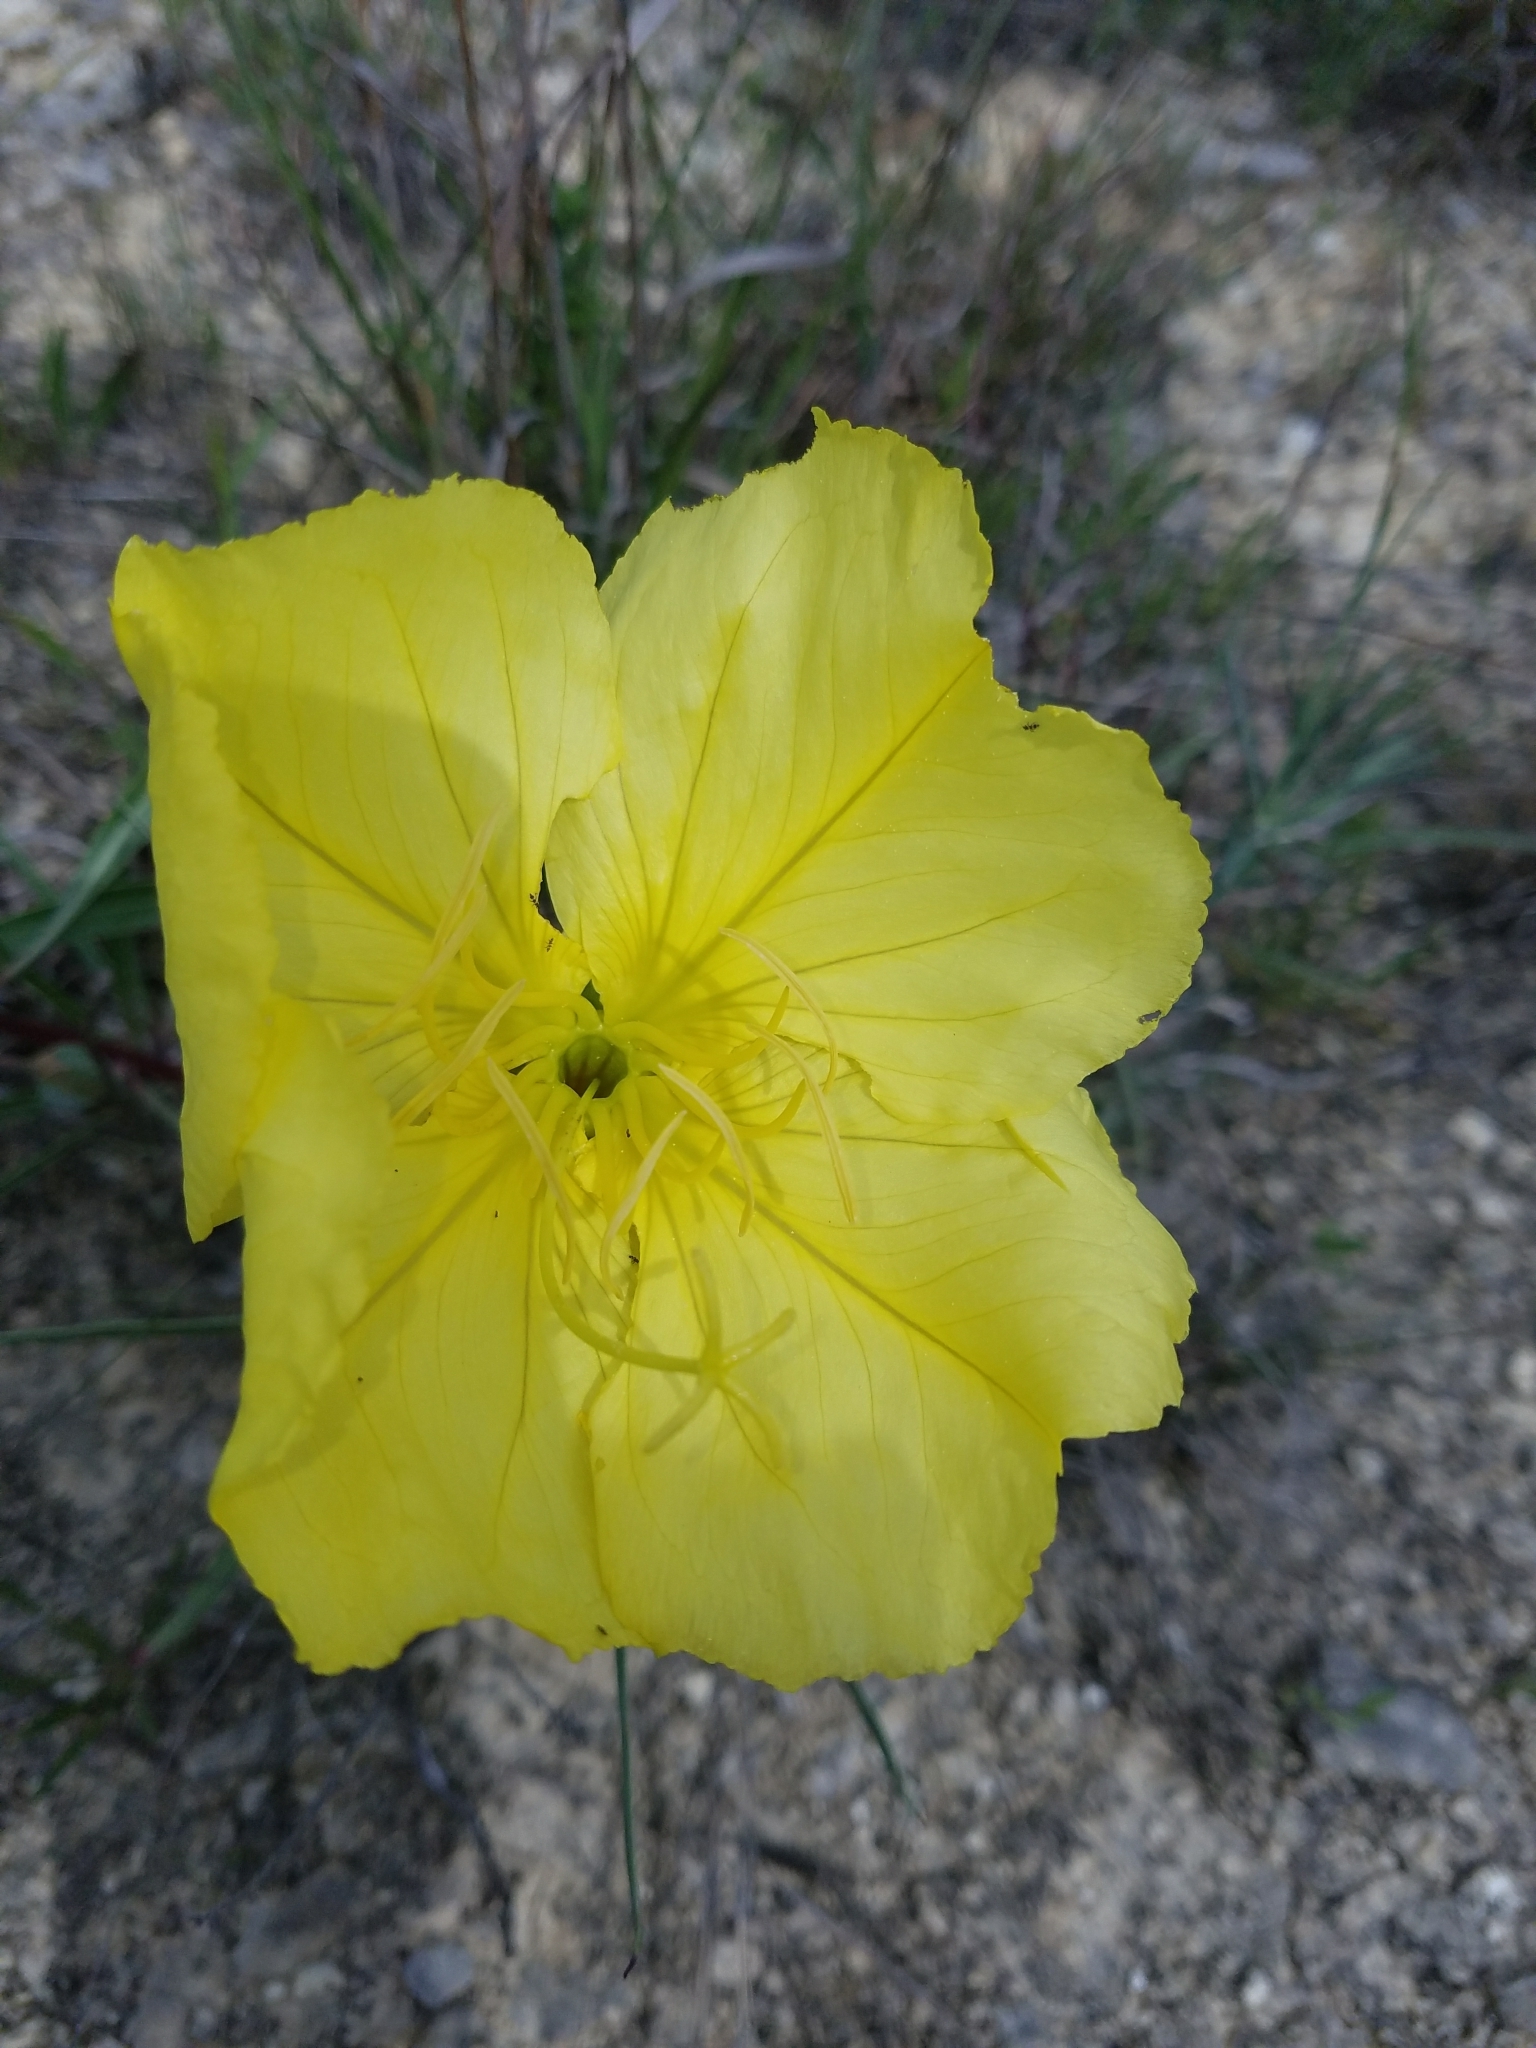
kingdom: Plantae
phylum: Tracheophyta
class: Magnoliopsida
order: Myrtales
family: Onagraceae
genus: Oenothera
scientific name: Oenothera macrocarpa
